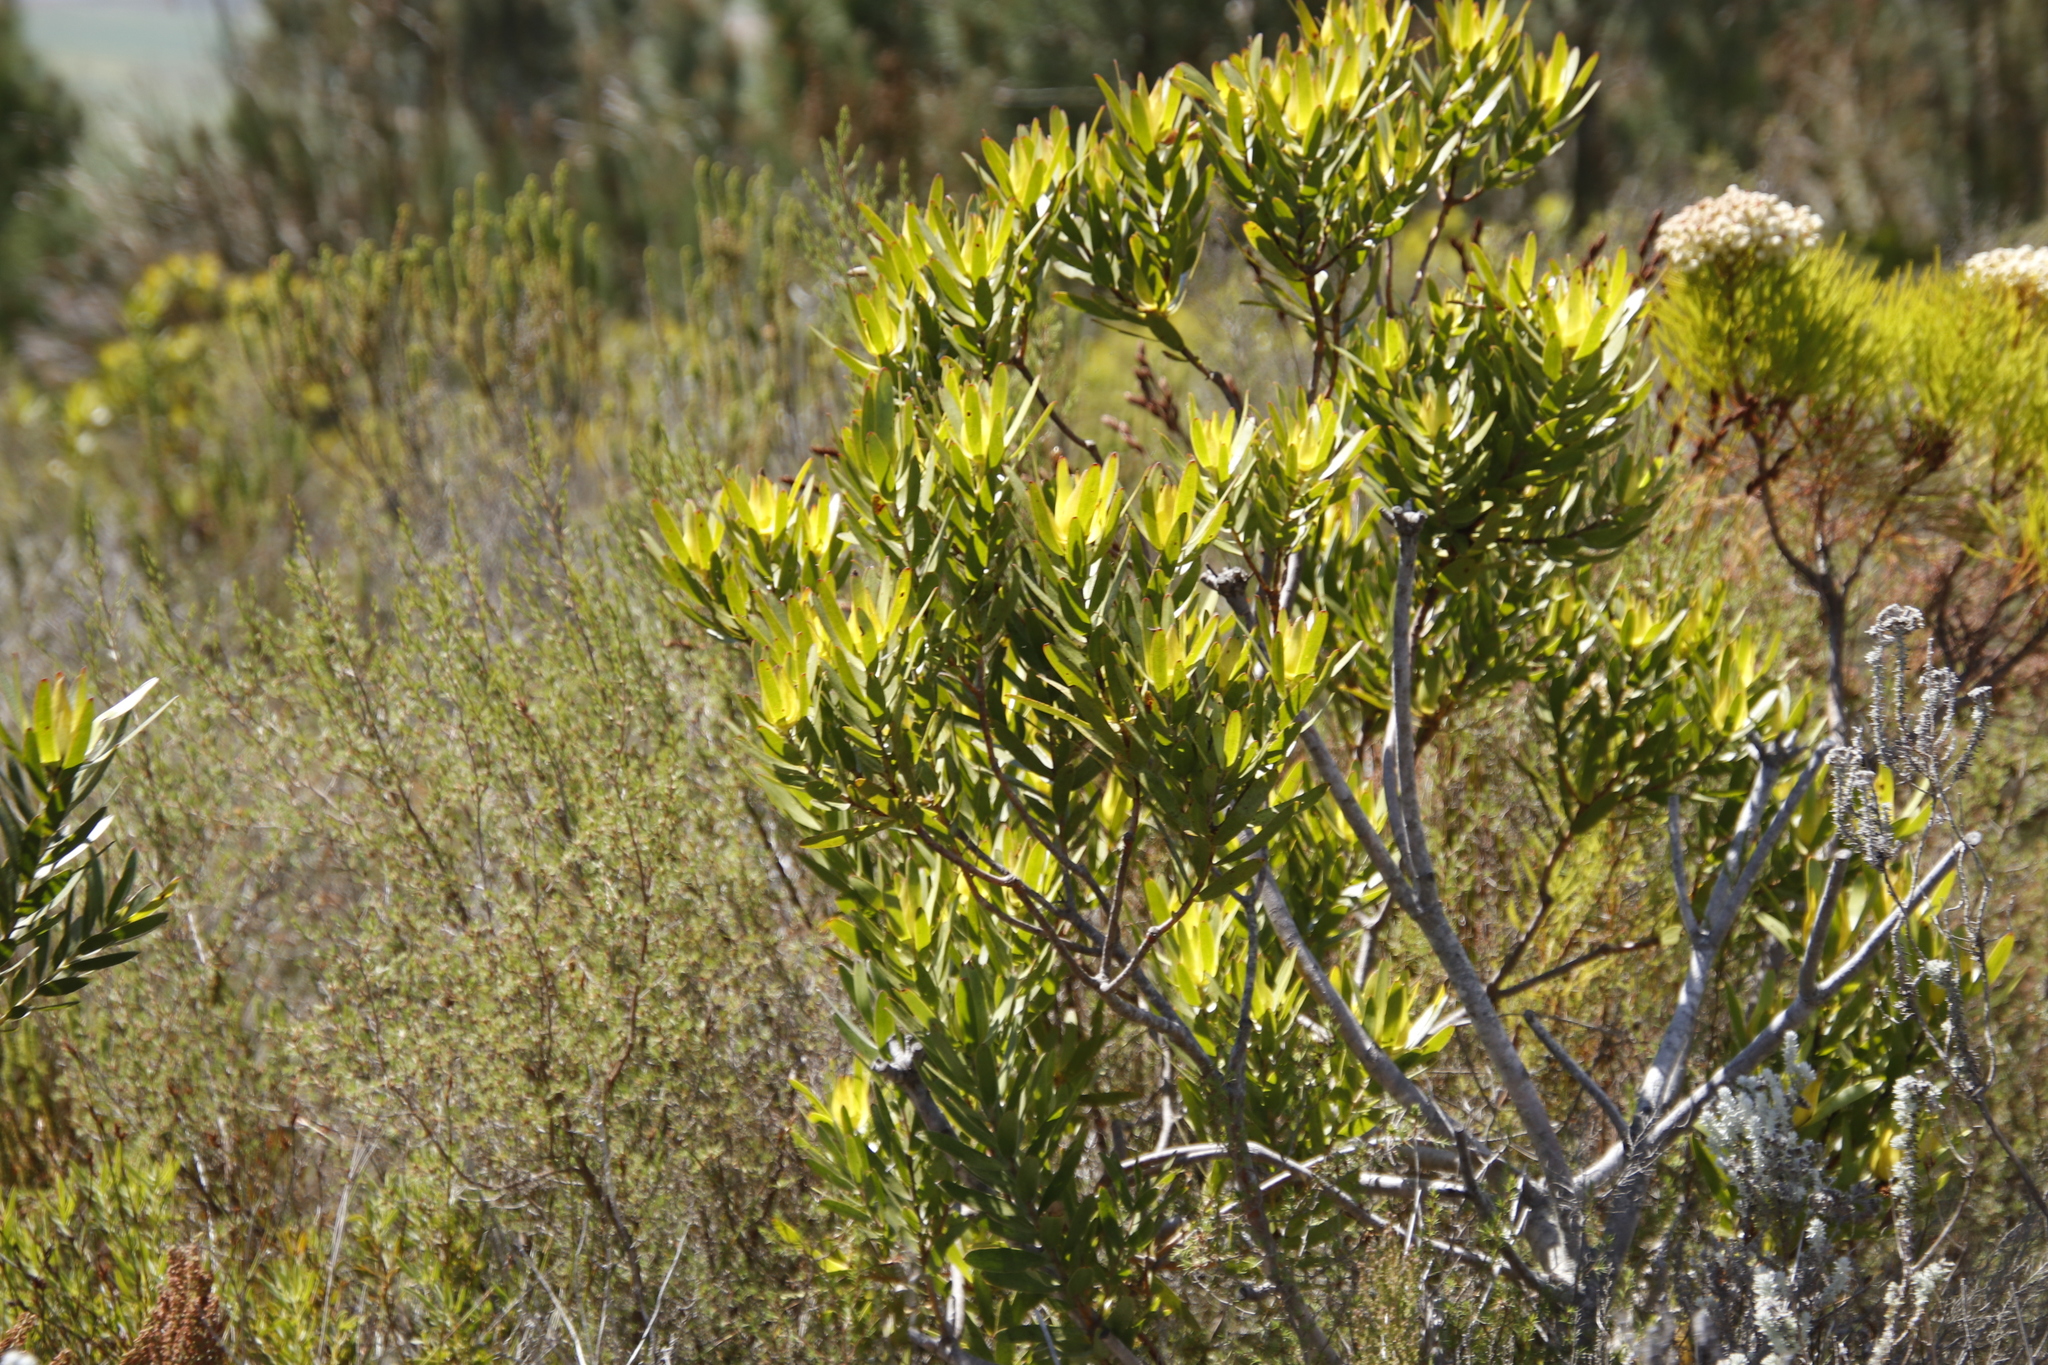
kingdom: Plantae
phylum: Tracheophyta
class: Magnoliopsida
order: Proteales
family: Proteaceae
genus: Leucadendron
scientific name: Leucadendron laureolum
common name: Golden sunshinebush
